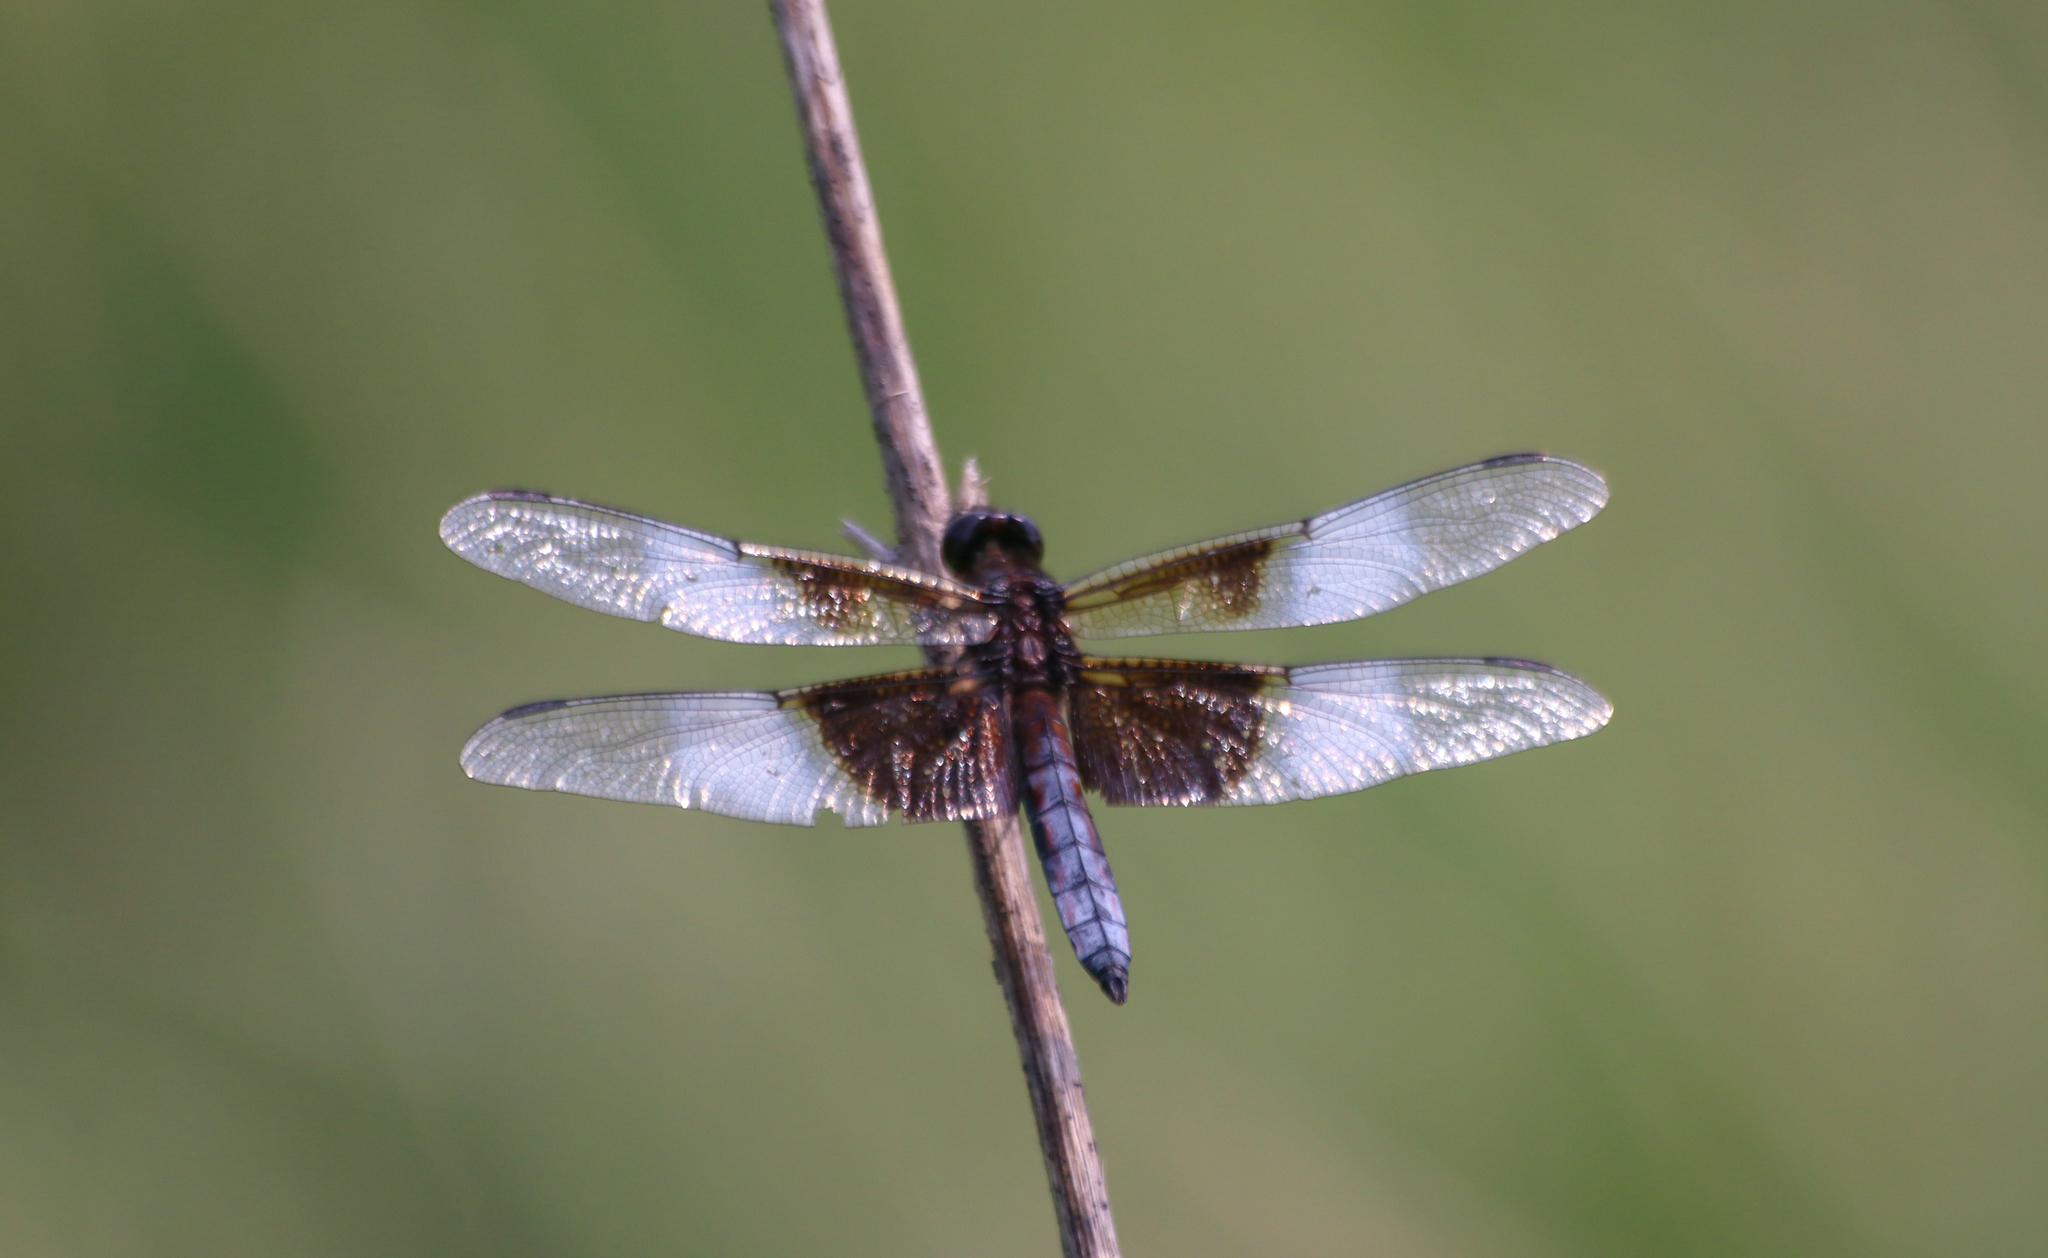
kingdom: Animalia
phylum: Arthropoda
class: Insecta
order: Odonata
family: Libellulidae
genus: Libellula
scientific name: Libellula luctuosa
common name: Widow skimmer
